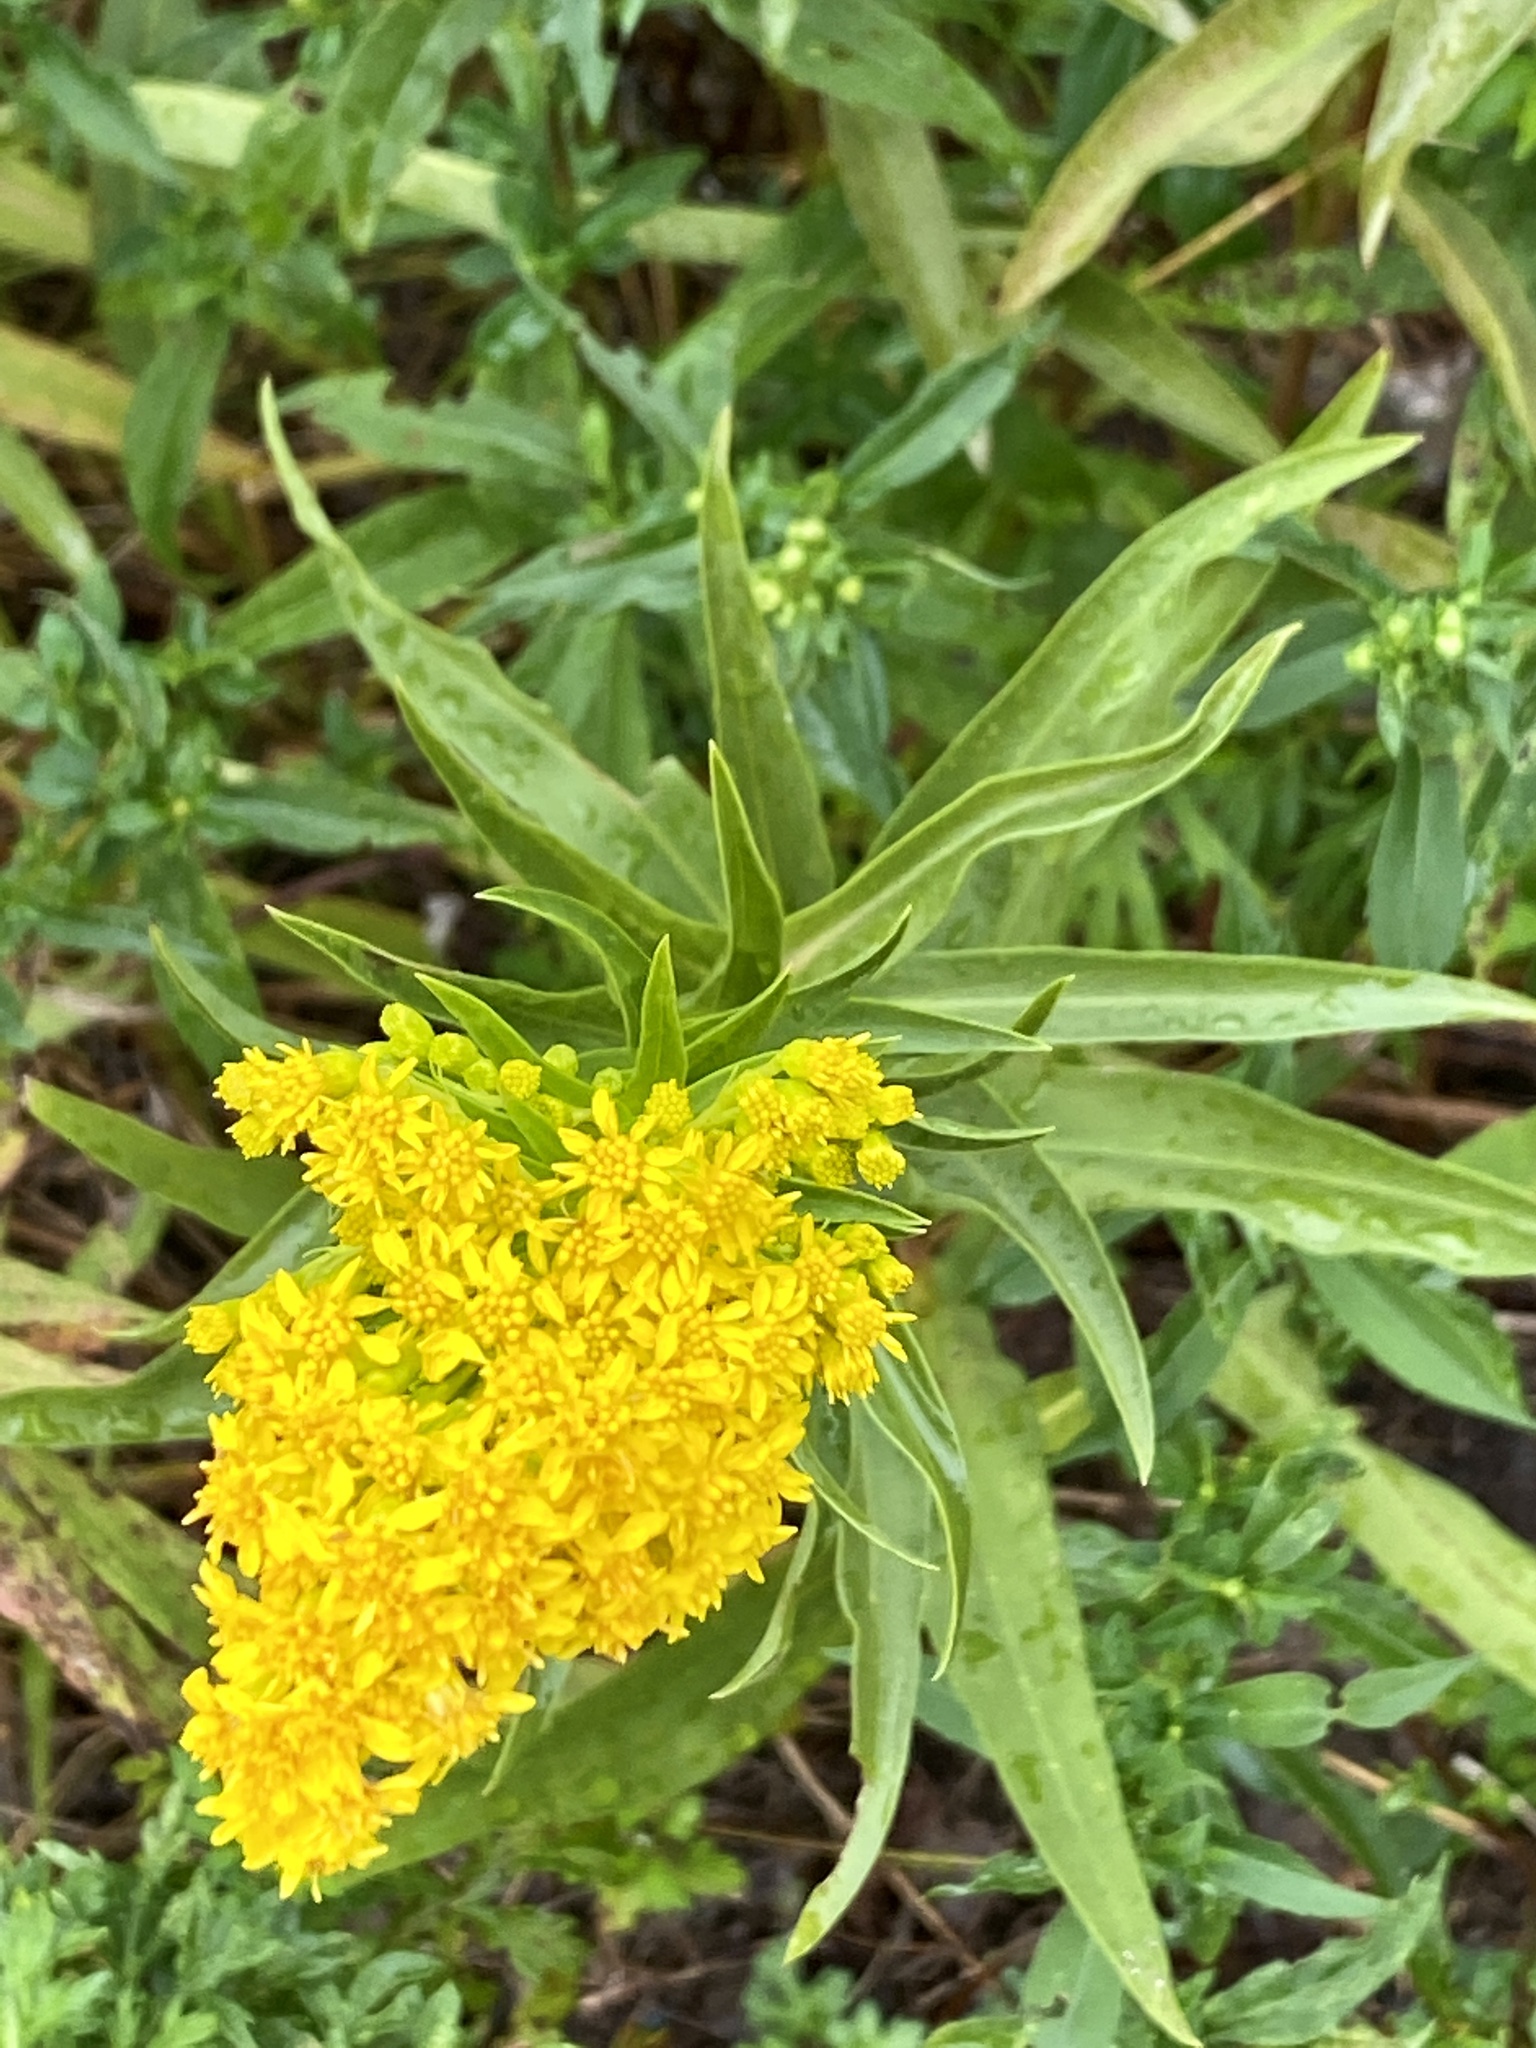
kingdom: Plantae
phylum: Tracheophyta
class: Magnoliopsida
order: Asterales
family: Asteraceae
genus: Solidago
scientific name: Solidago sempervirens
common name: Salt-marsh goldenrod
